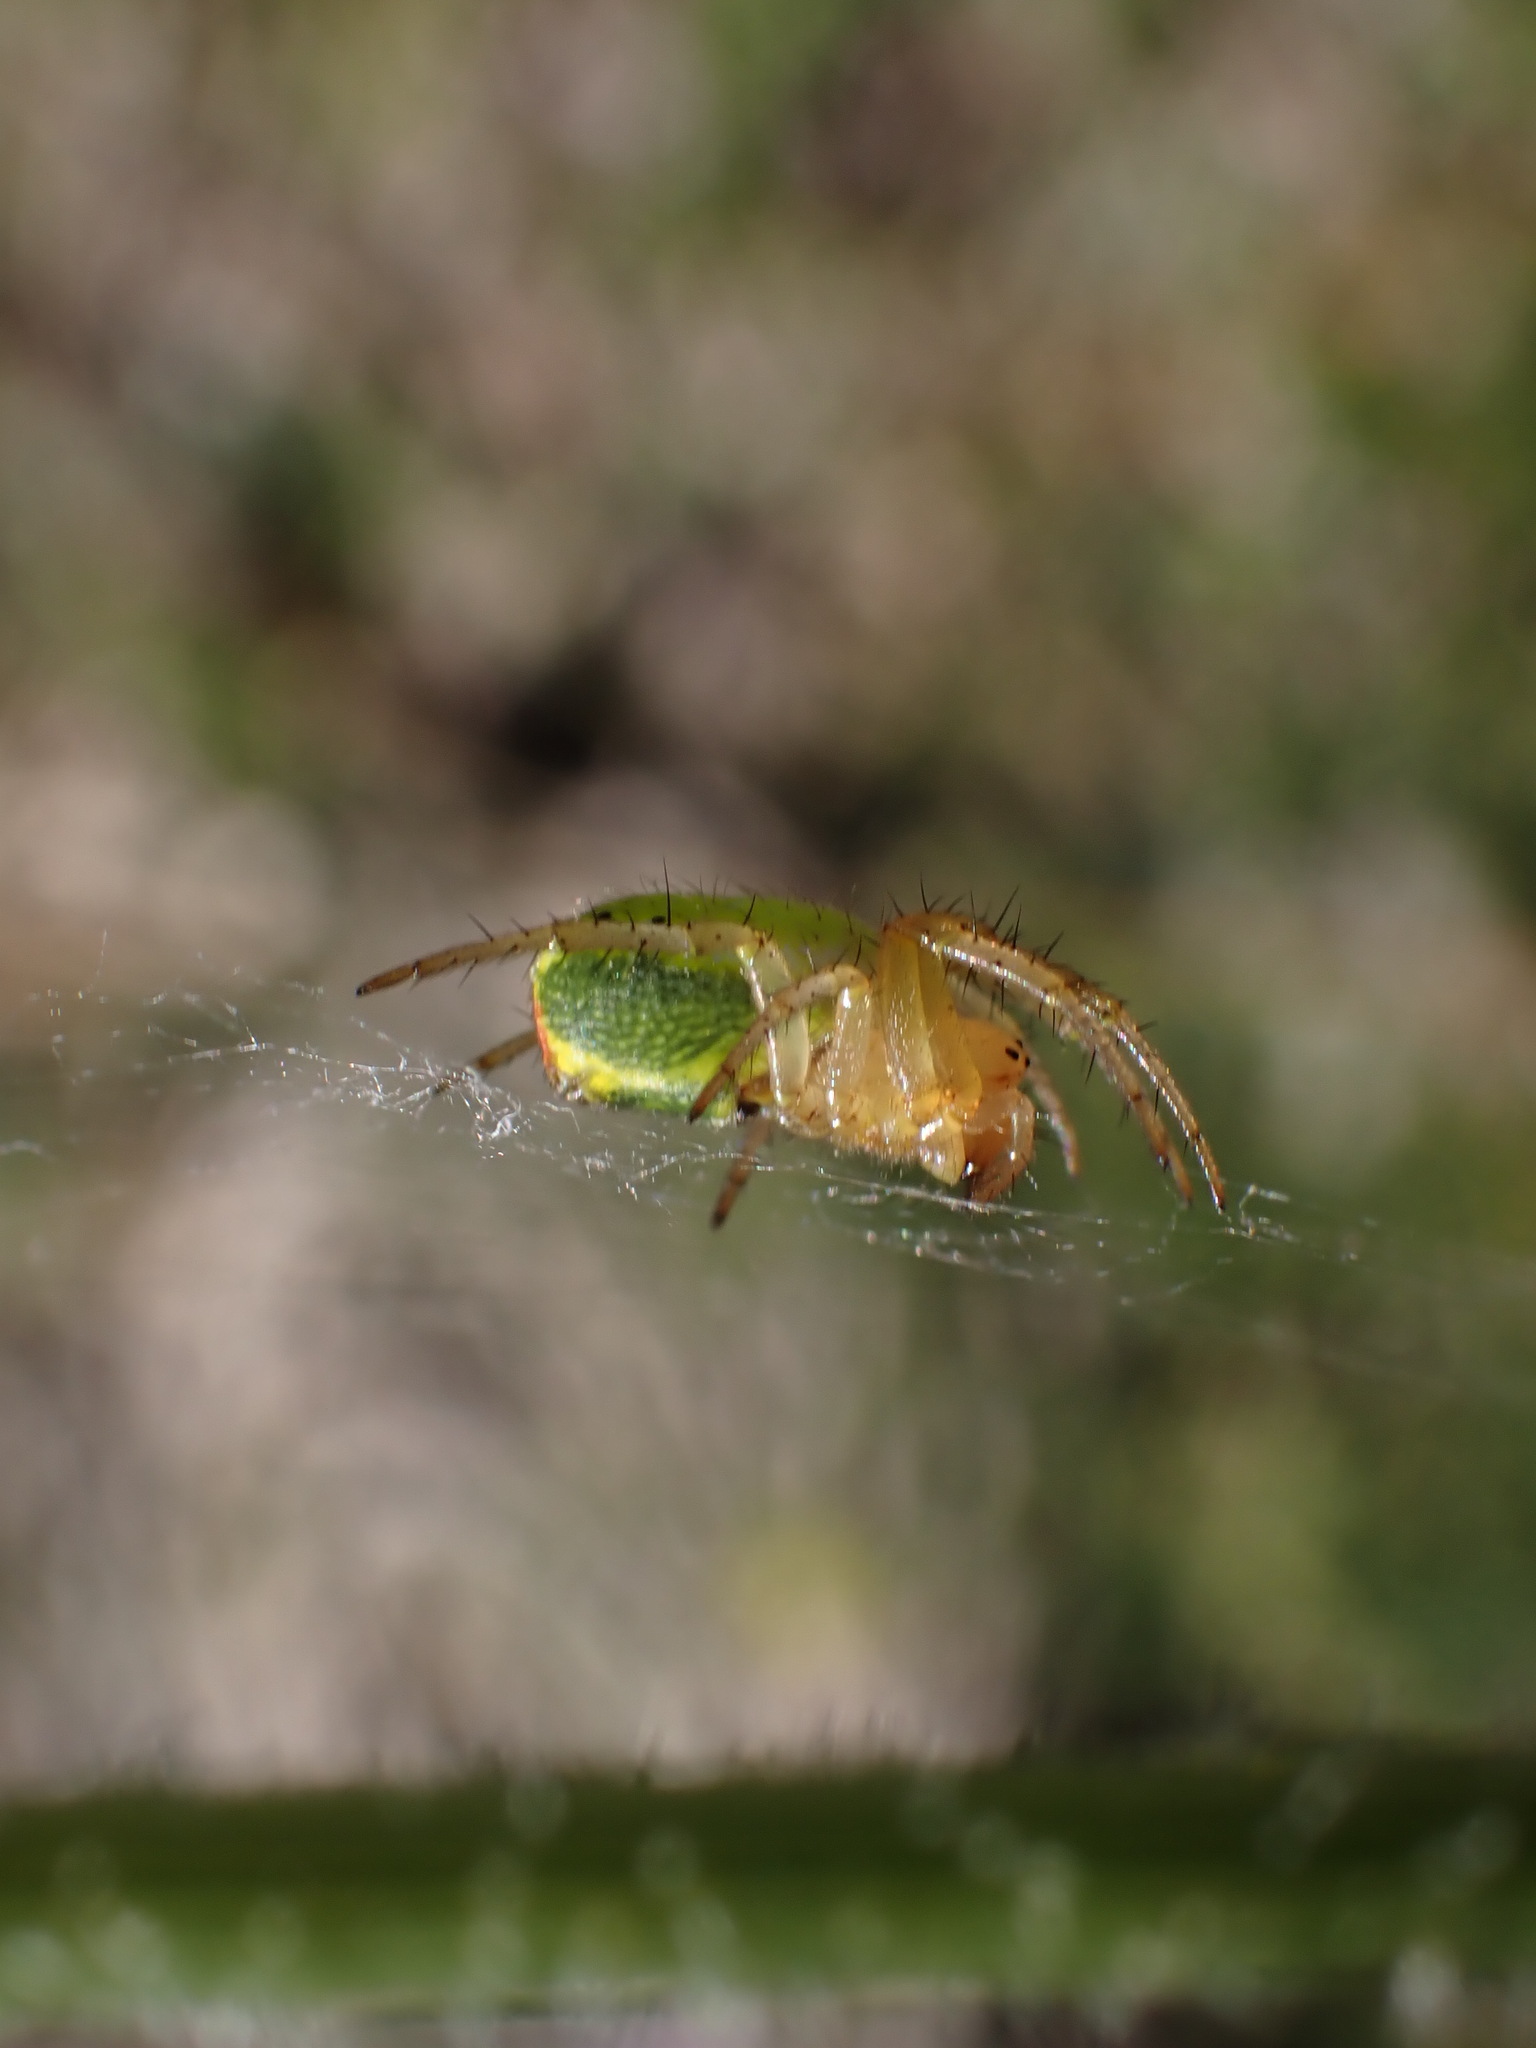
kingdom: Animalia
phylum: Arthropoda
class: Arachnida
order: Araneae
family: Araneidae
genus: Araniella
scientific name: Araniella
